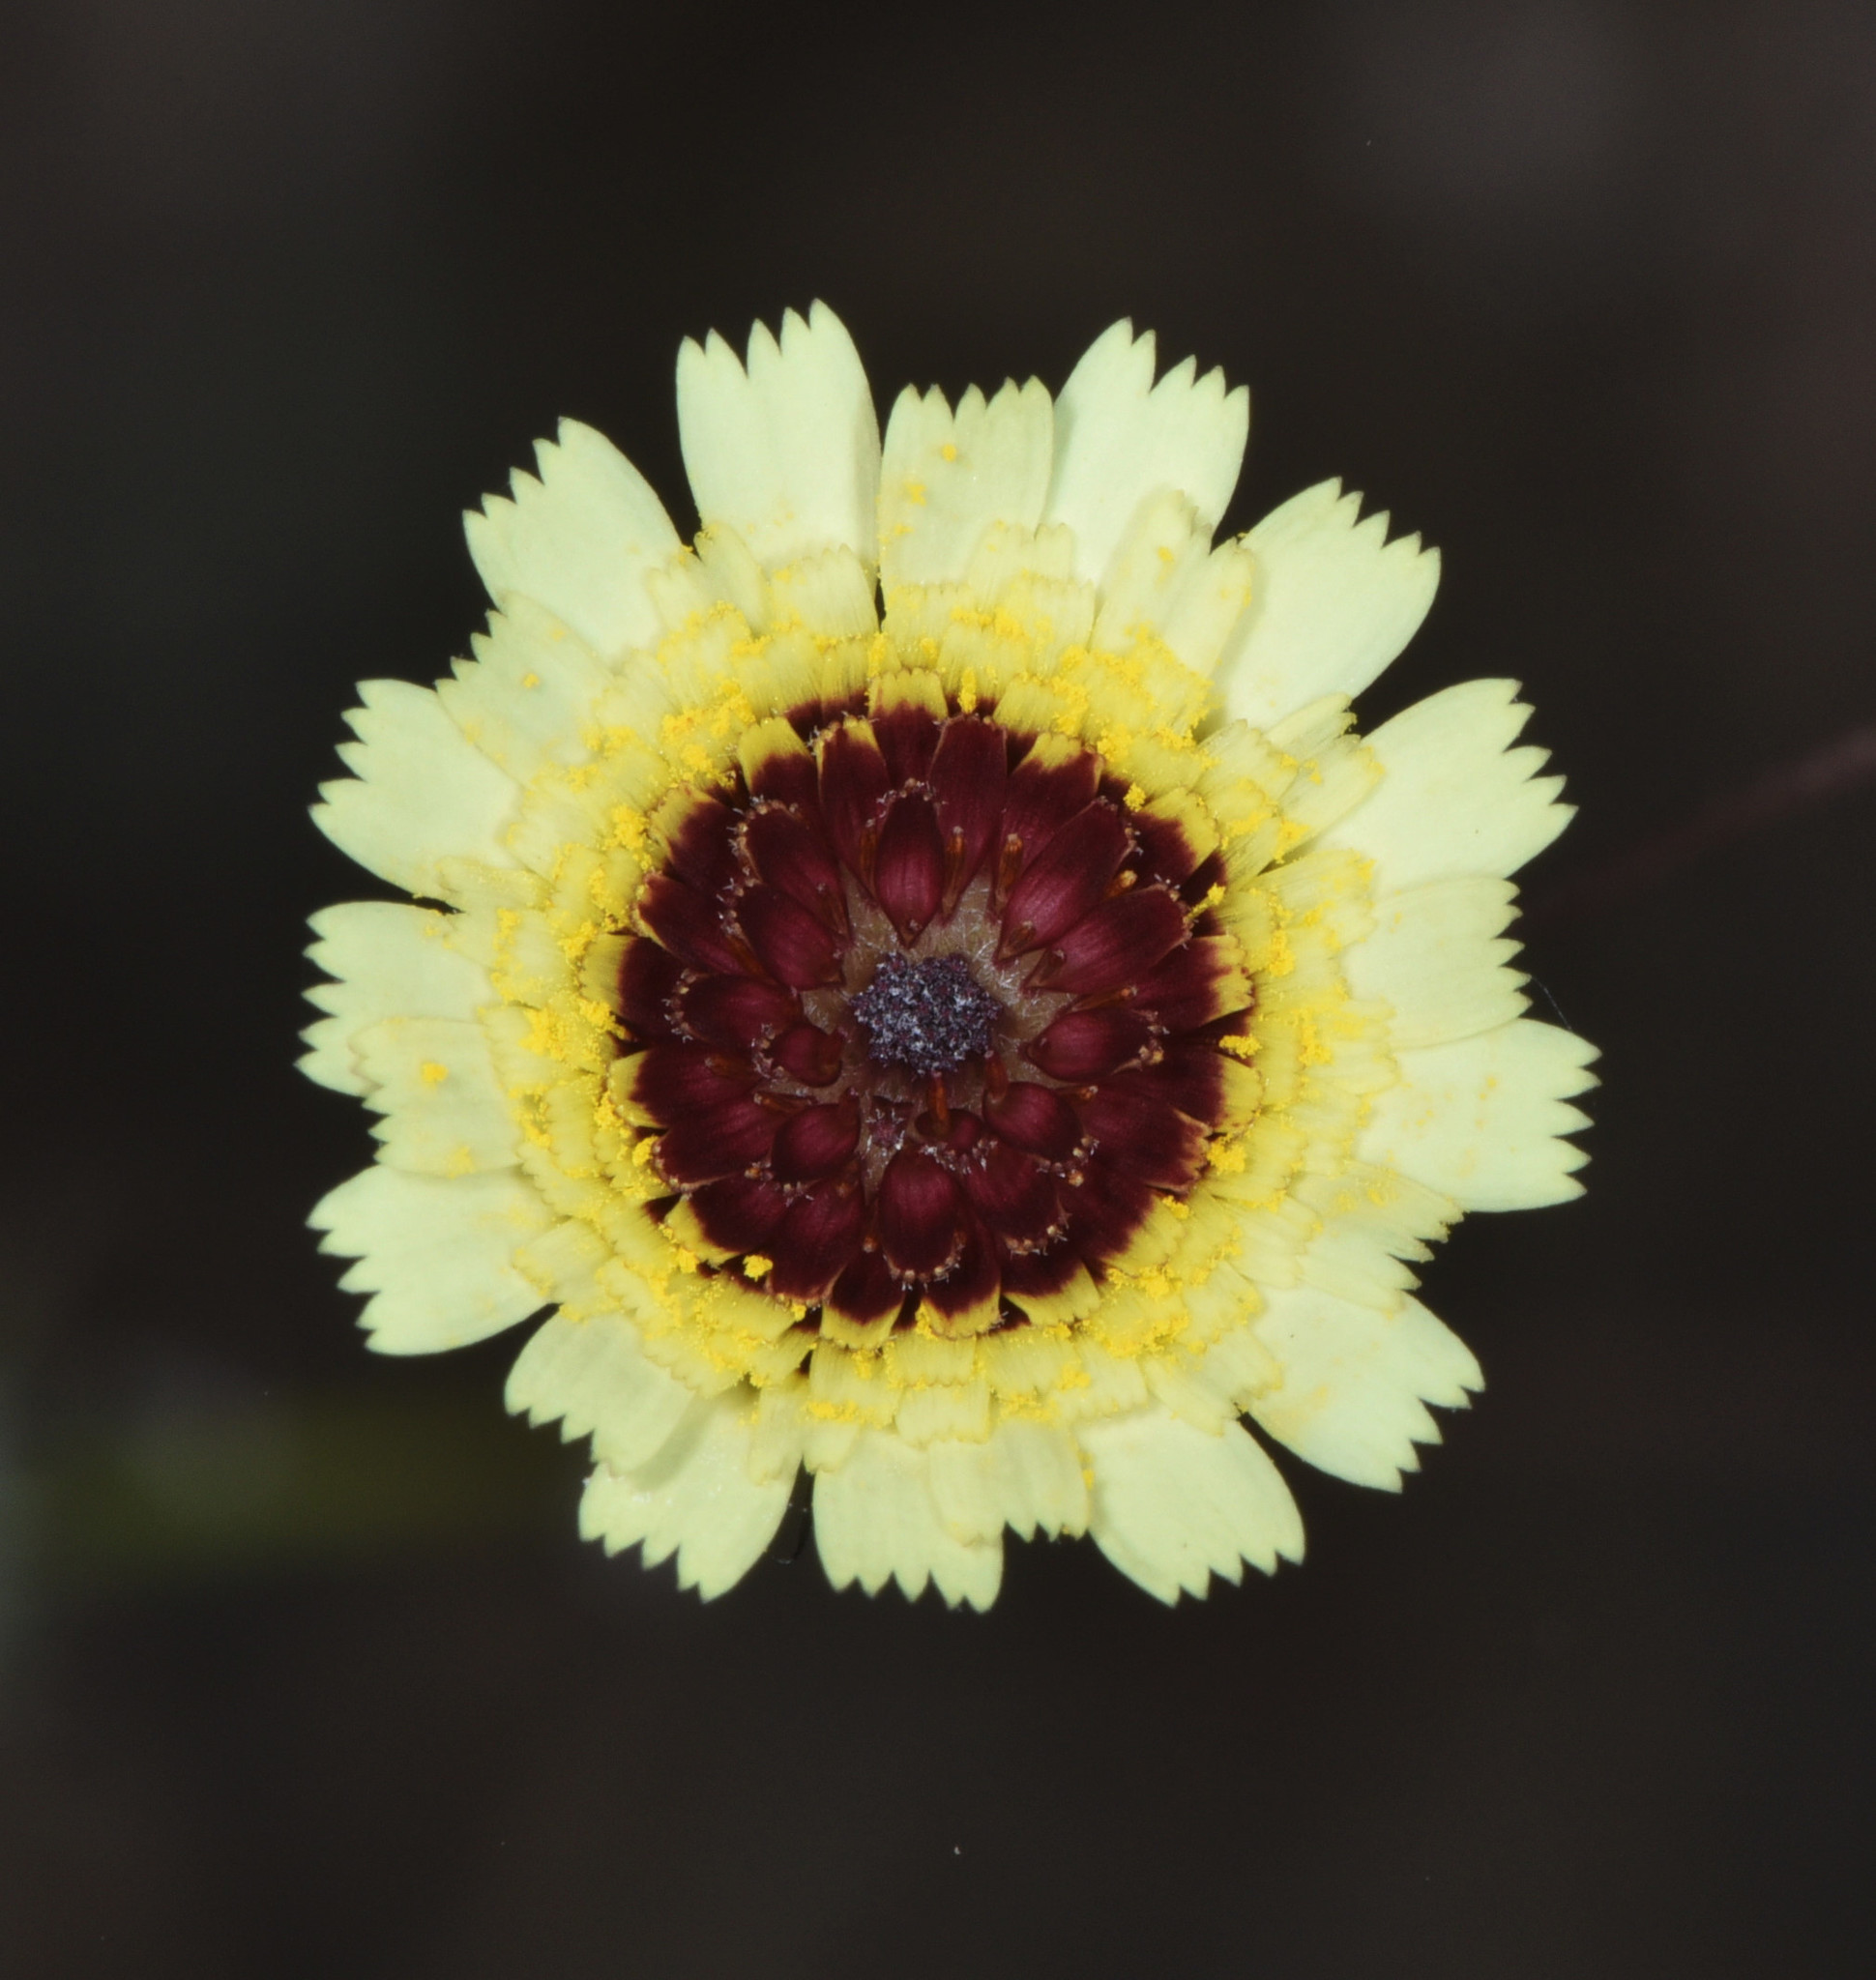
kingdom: Plantae
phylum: Tracheophyta
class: Magnoliopsida
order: Asterales
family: Asteraceae
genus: Tolpis
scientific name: Tolpis barbata
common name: Yellow hawkweed
